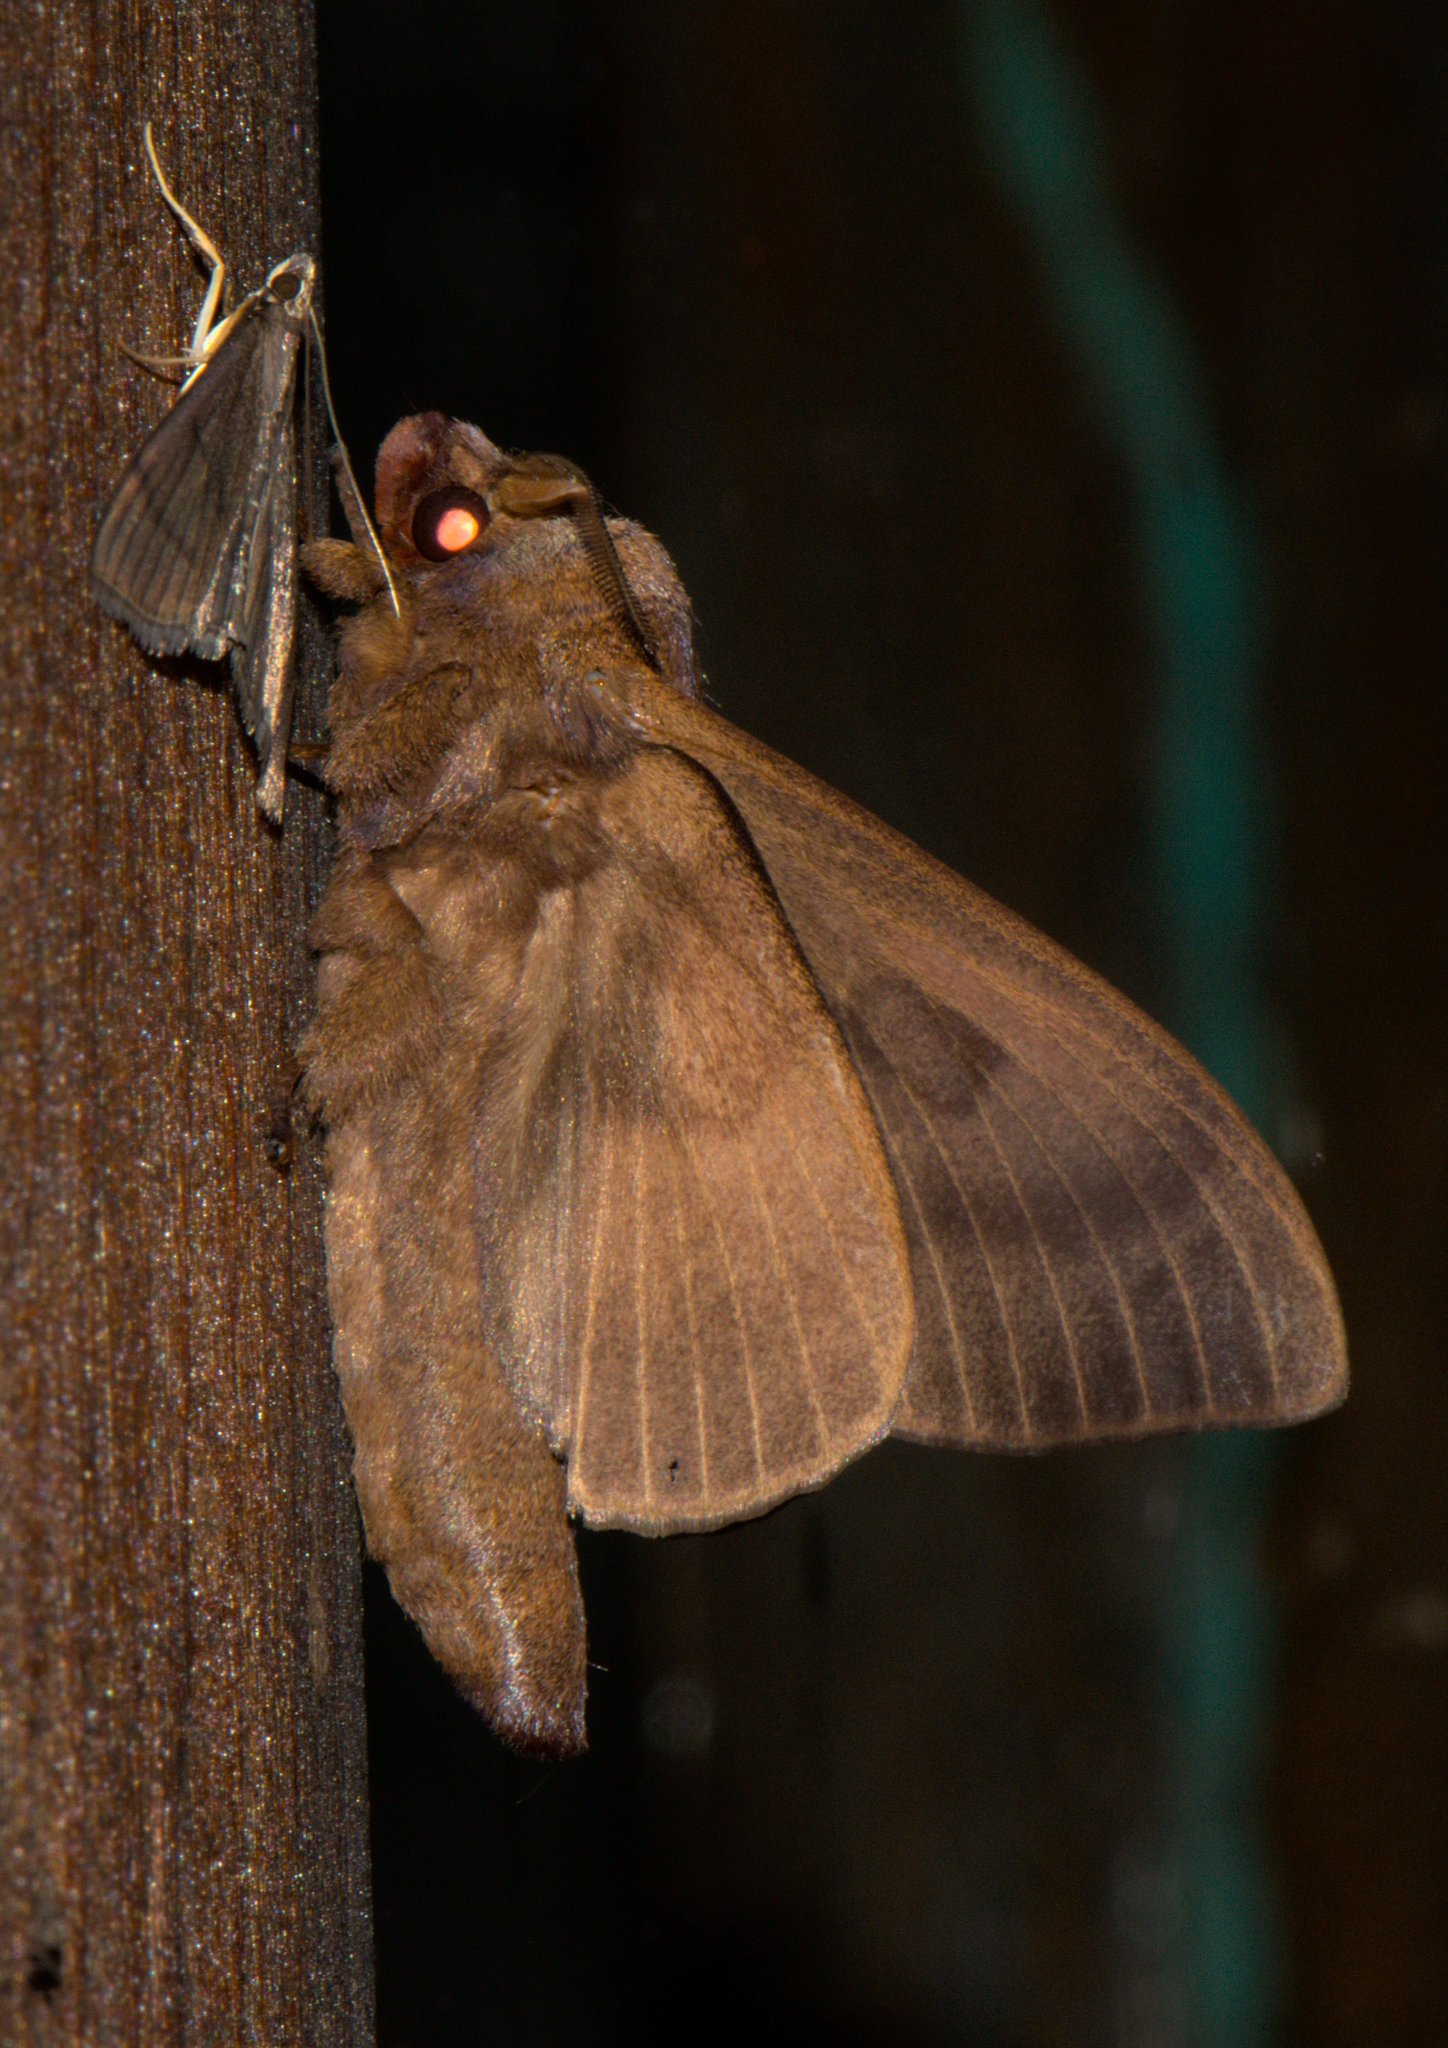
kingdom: Animalia
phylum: Arthropoda
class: Insecta
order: Lepidoptera
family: Lasiocampidae
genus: Paralebeda
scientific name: Paralebeda femorata
